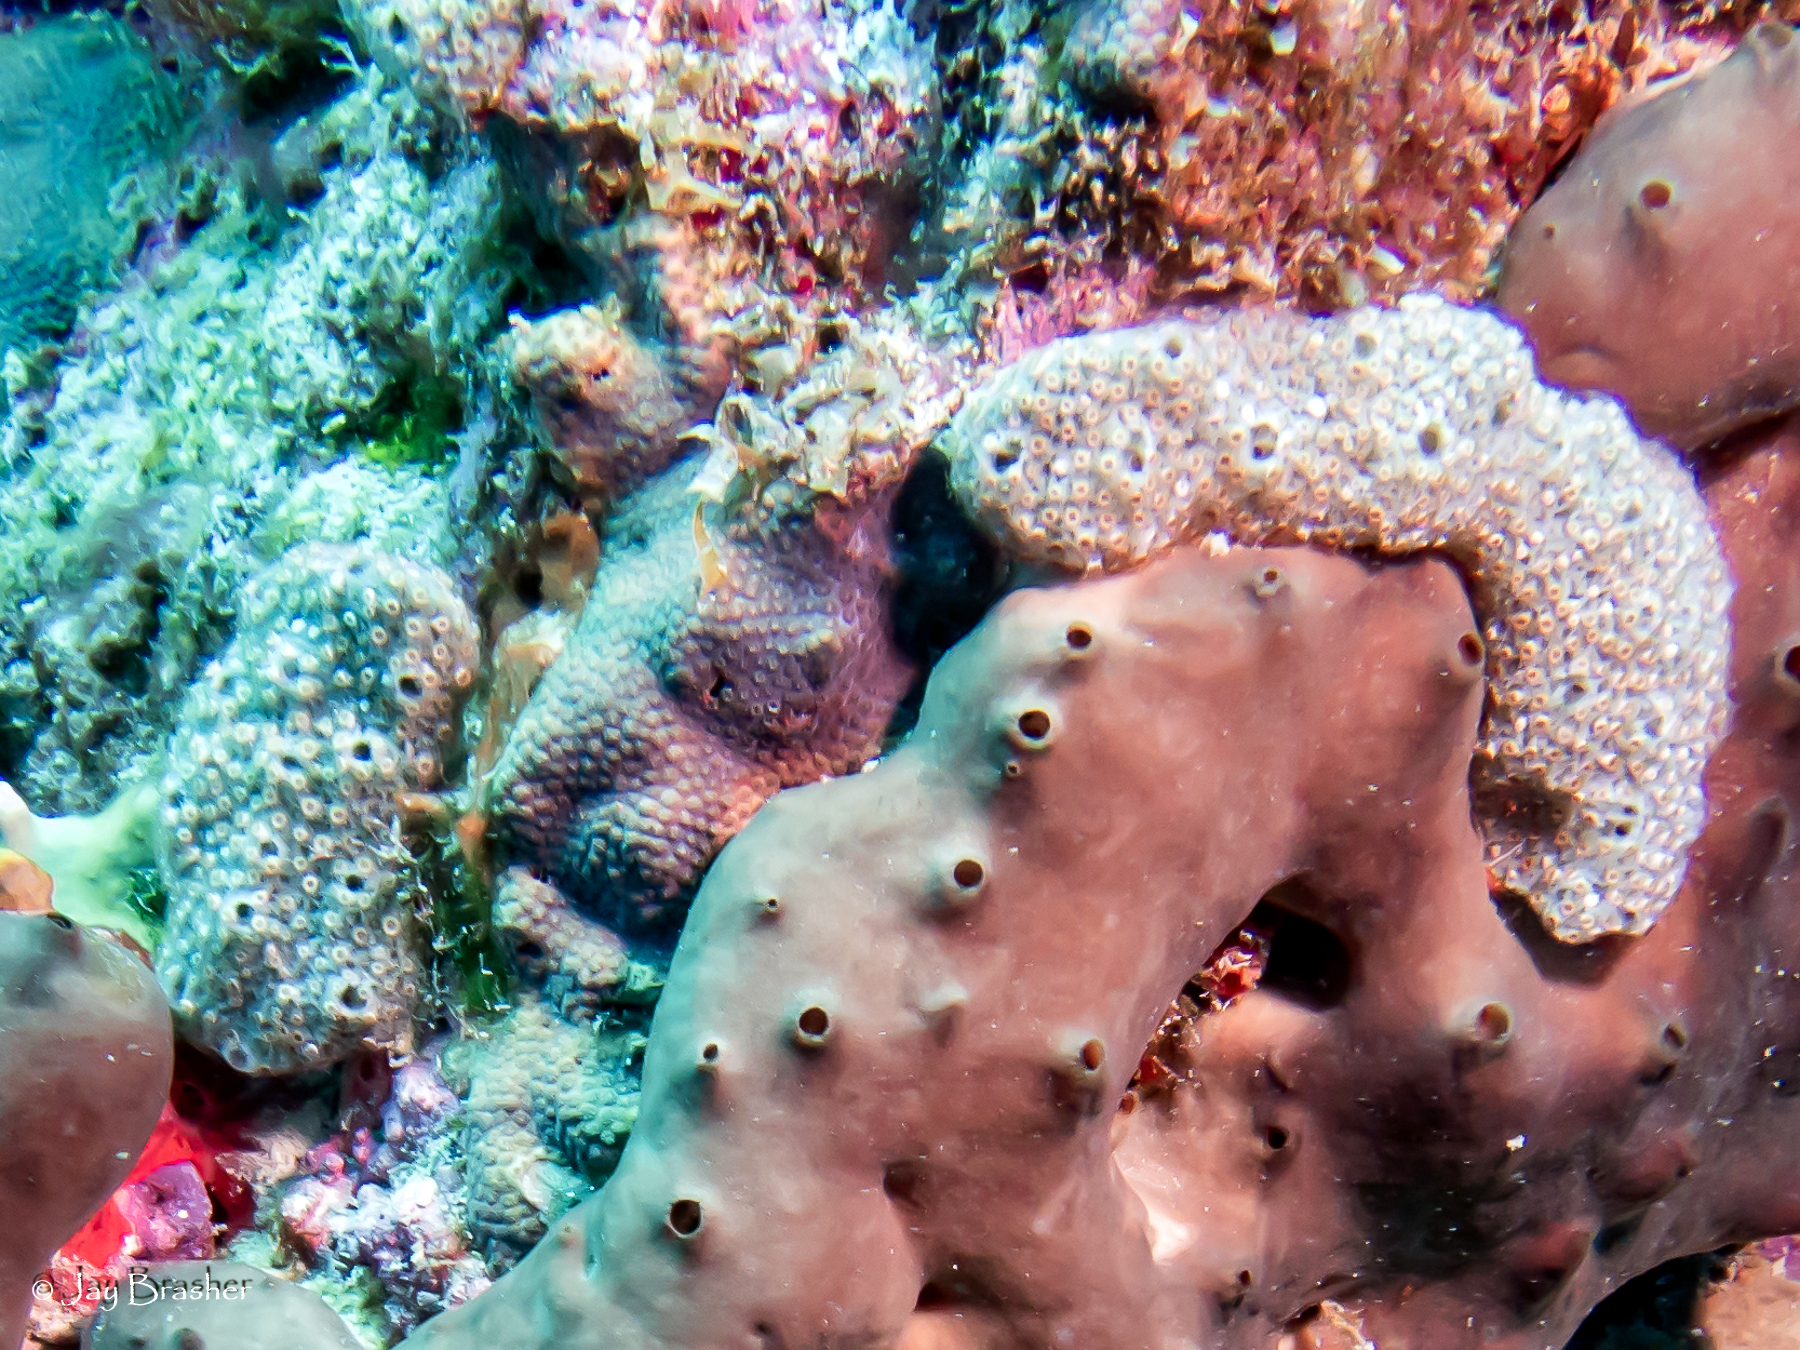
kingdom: Animalia
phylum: Cnidaria
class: Anthozoa
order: Zoantharia
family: Parazoanthidae
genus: Umimayanthus
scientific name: Umimayanthus parasiticus
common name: Sponge zoanthid
